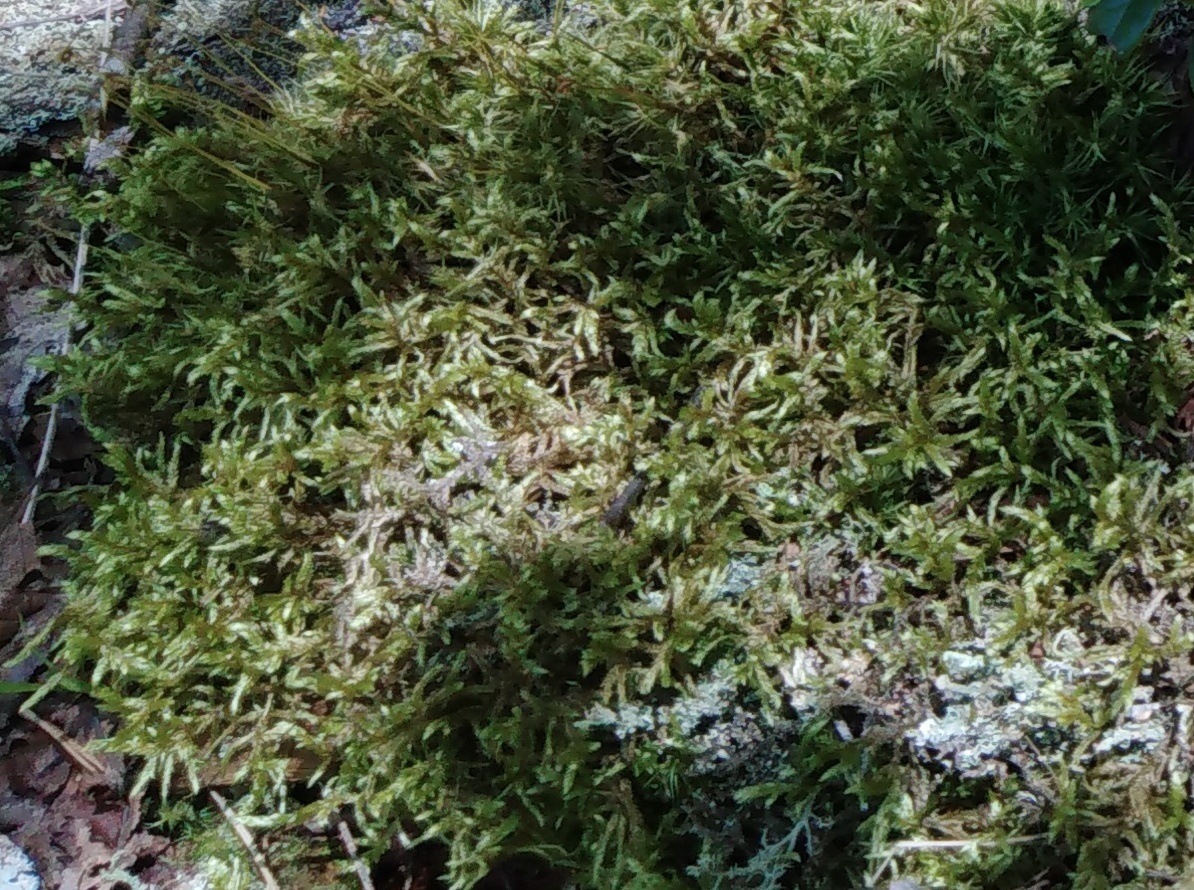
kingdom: Plantae
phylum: Bryophyta
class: Bryopsida
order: Hypnales
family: Hylocomiaceae
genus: Pleurozium
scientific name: Pleurozium schreberi
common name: Red-stemmed feather moss
